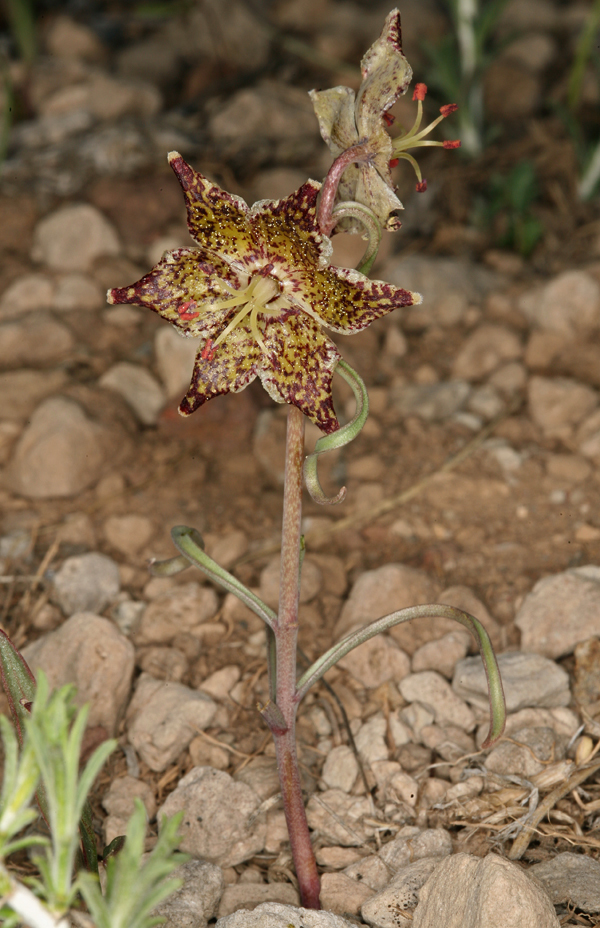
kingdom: Plantae
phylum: Tracheophyta
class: Liliopsida
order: Liliales
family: Liliaceae
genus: Fritillaria
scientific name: Fritillaria pinetorum
